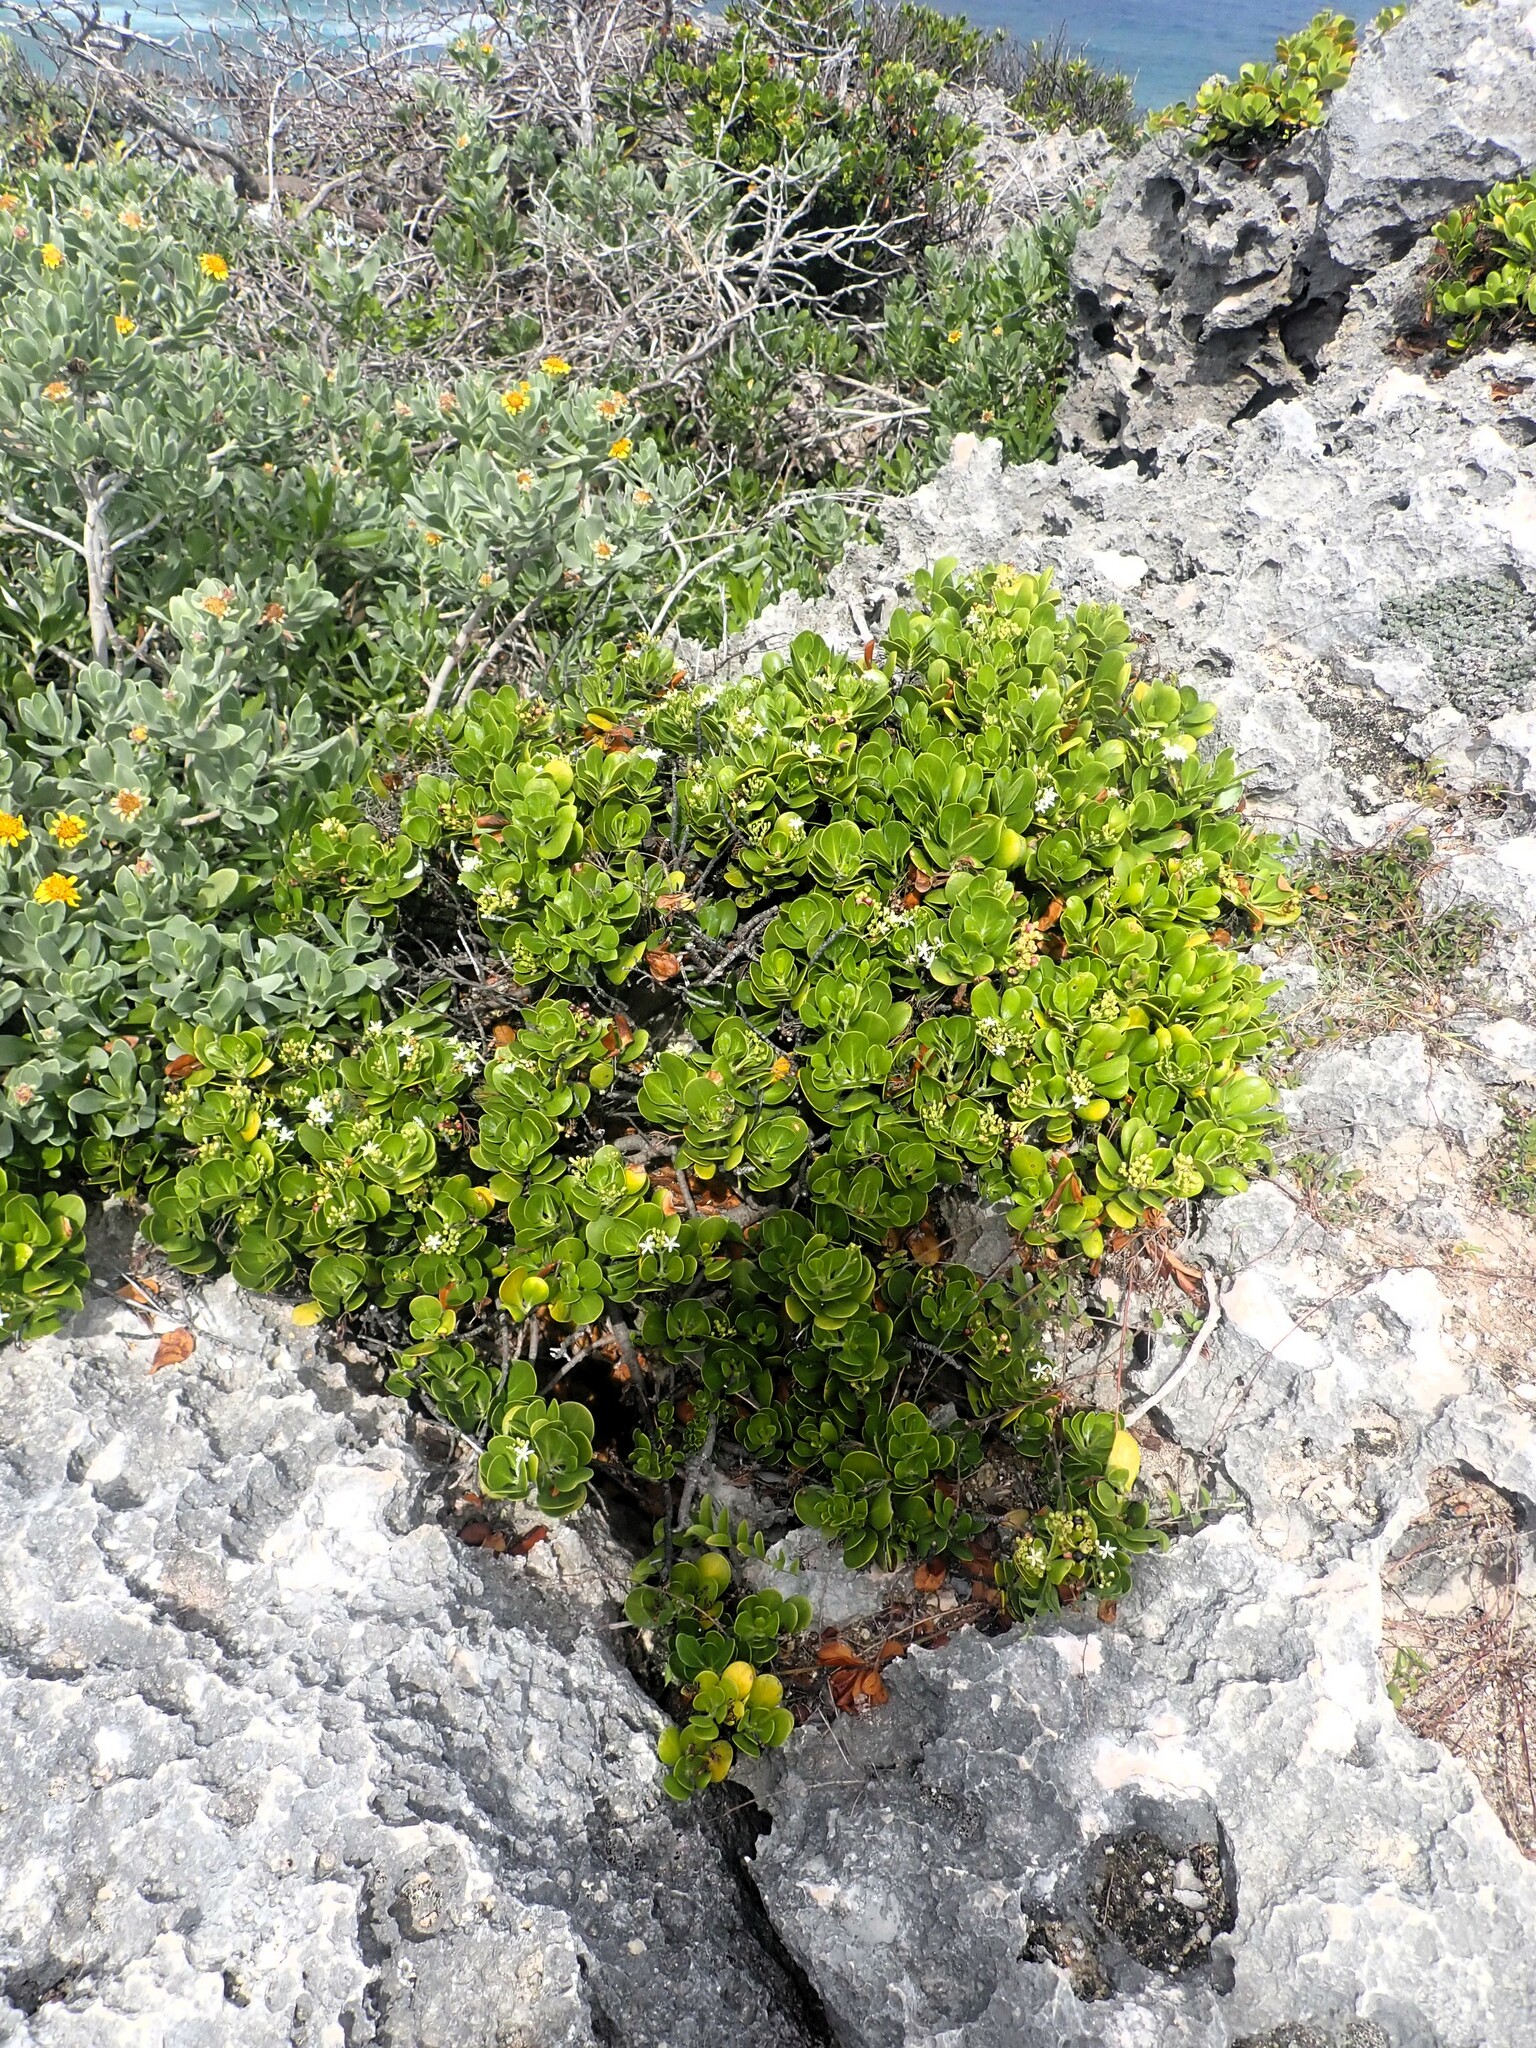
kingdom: Plantae
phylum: Tracheophyta
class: Magnoliopsida
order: Gentianales
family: Rubiaceae
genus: Erithalis
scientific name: Erithalis fruticosa
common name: Candlewood
